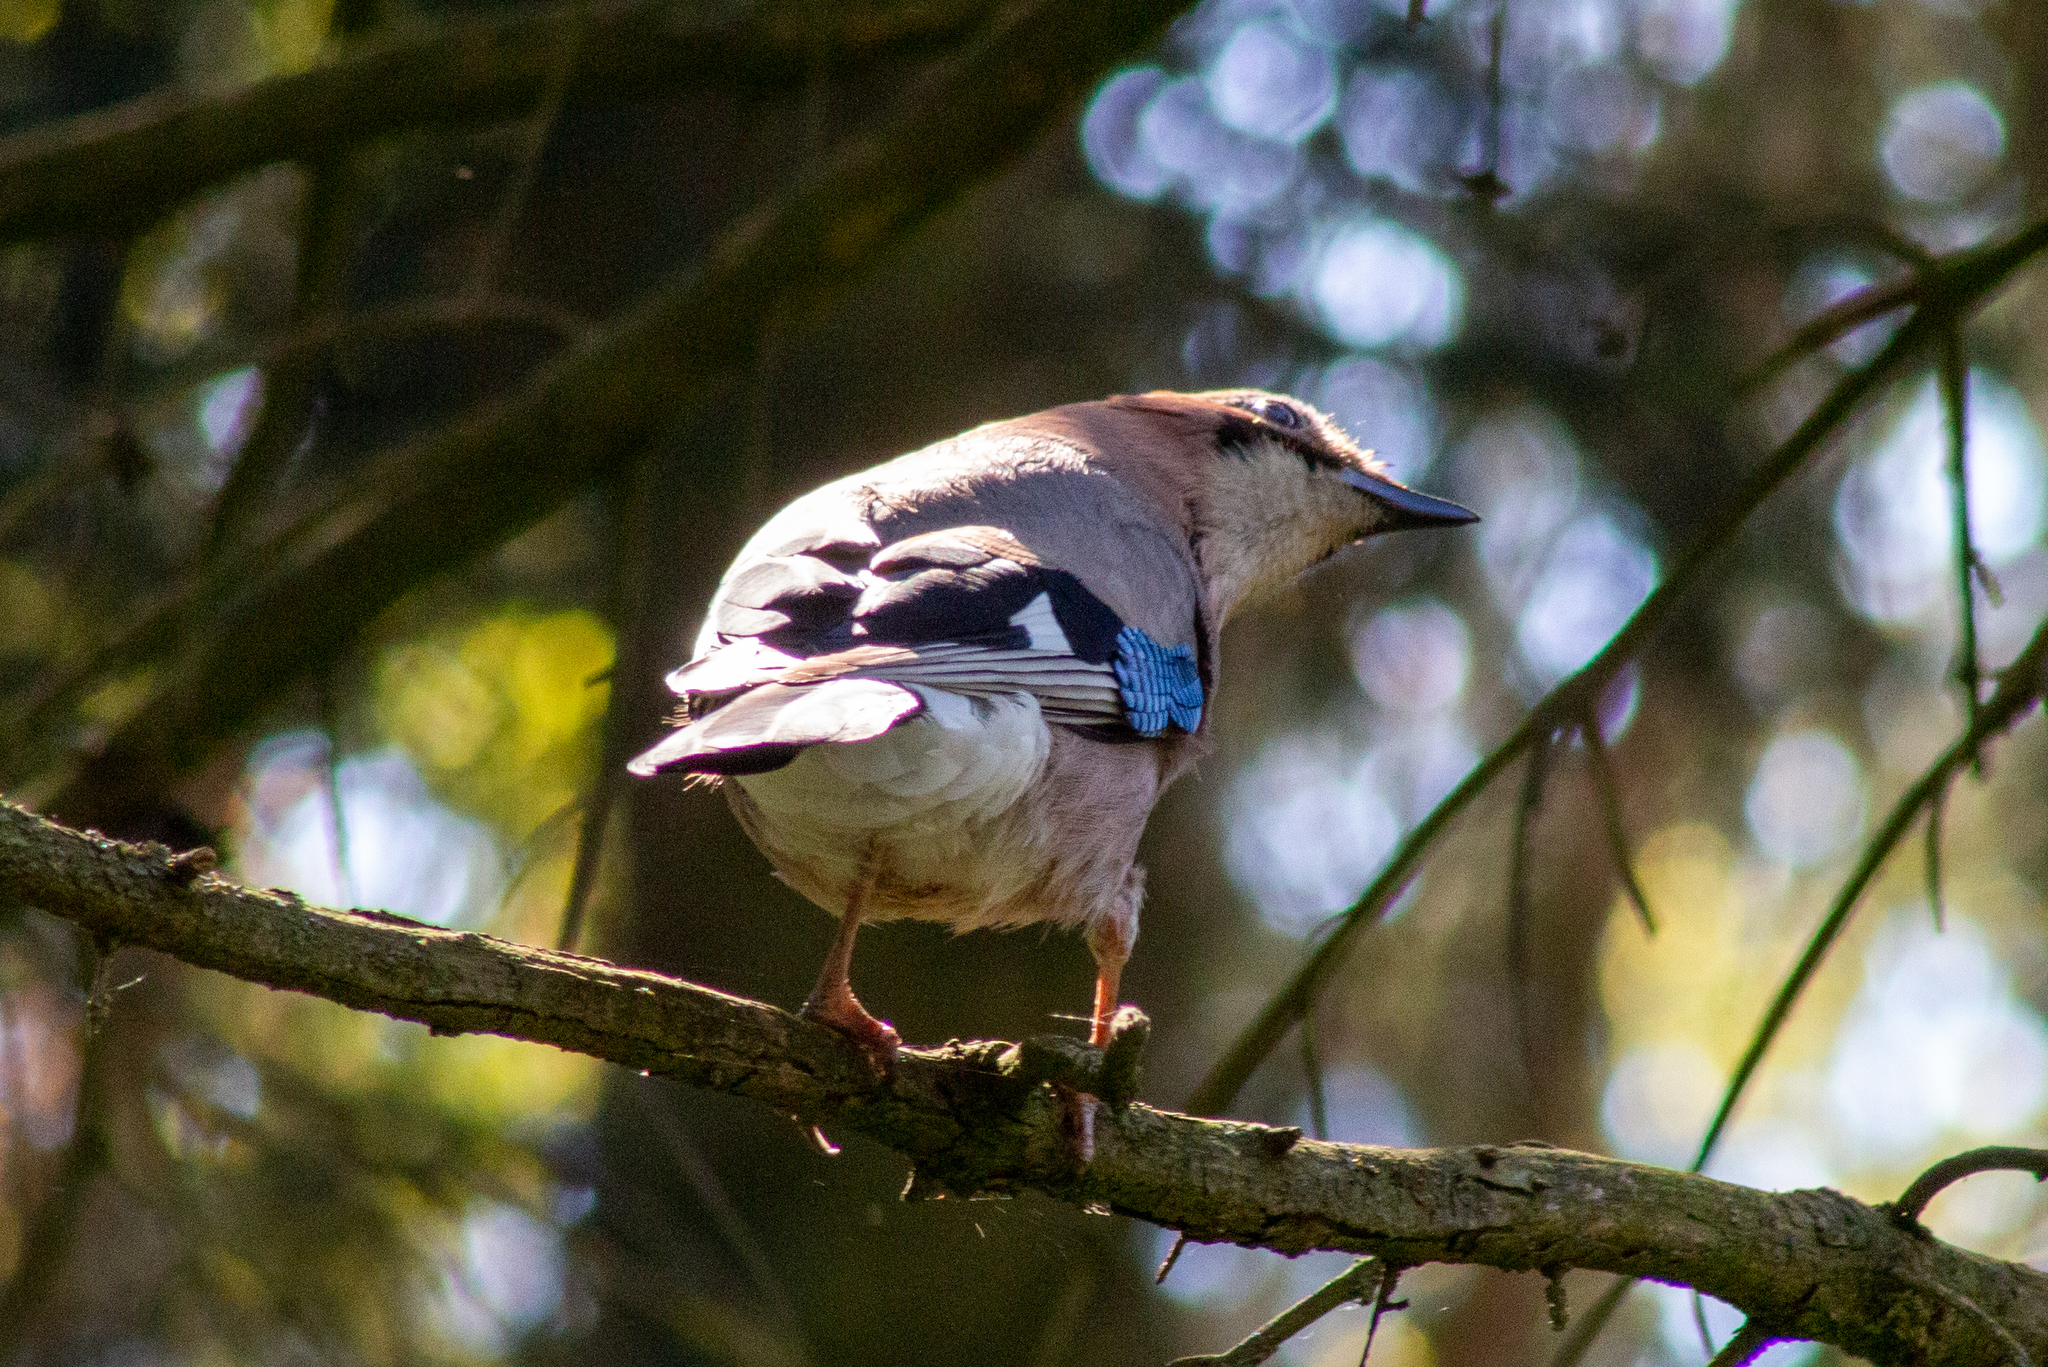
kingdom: Animalia
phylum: Chordata
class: Aves
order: Passeriformes
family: Corvidae
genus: Garrulus
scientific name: Garrulus glandarius
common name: Eurasian jay
